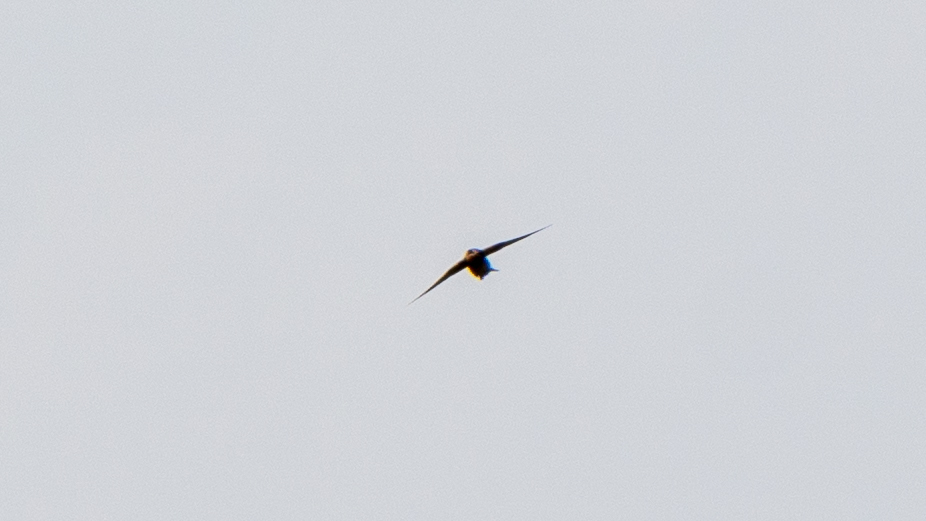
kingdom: Animalia
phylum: Chordata
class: Aves
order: Passeriformes
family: Hirundinidae
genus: Hirundo
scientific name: Hirundo rustica
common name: Barn swallow
